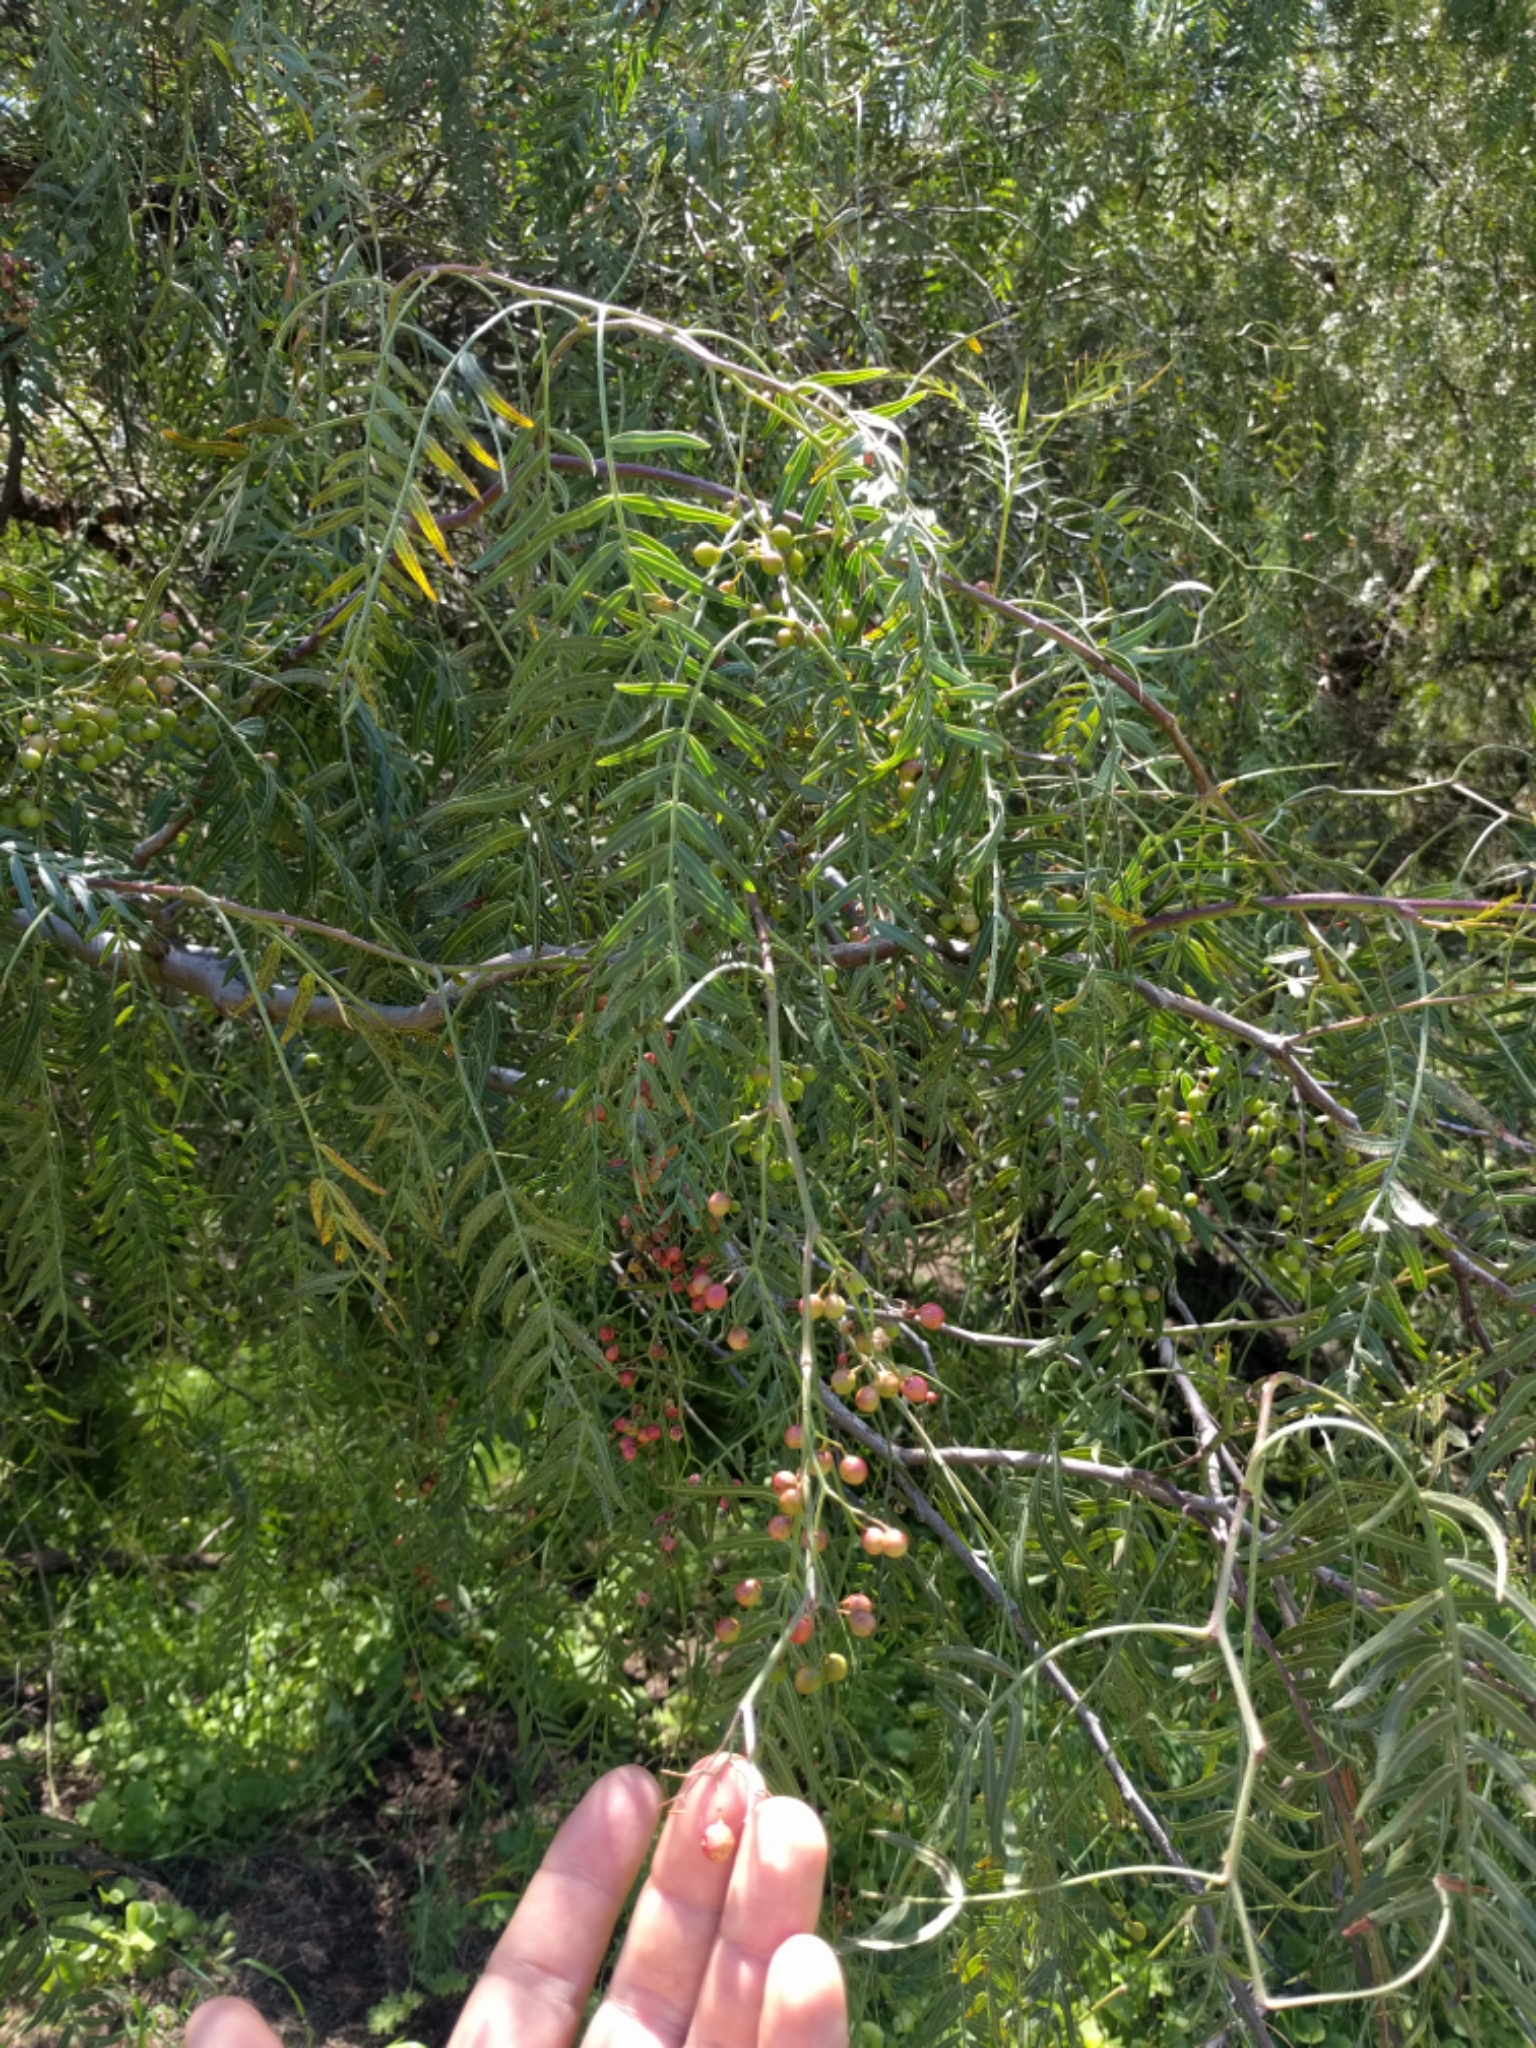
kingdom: Plantae
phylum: Tracheophyta
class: Magnoliopsida
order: Sapindales
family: Anacardiaceae
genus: Schinus
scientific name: Schinus molle
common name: Peruvian peppertree
